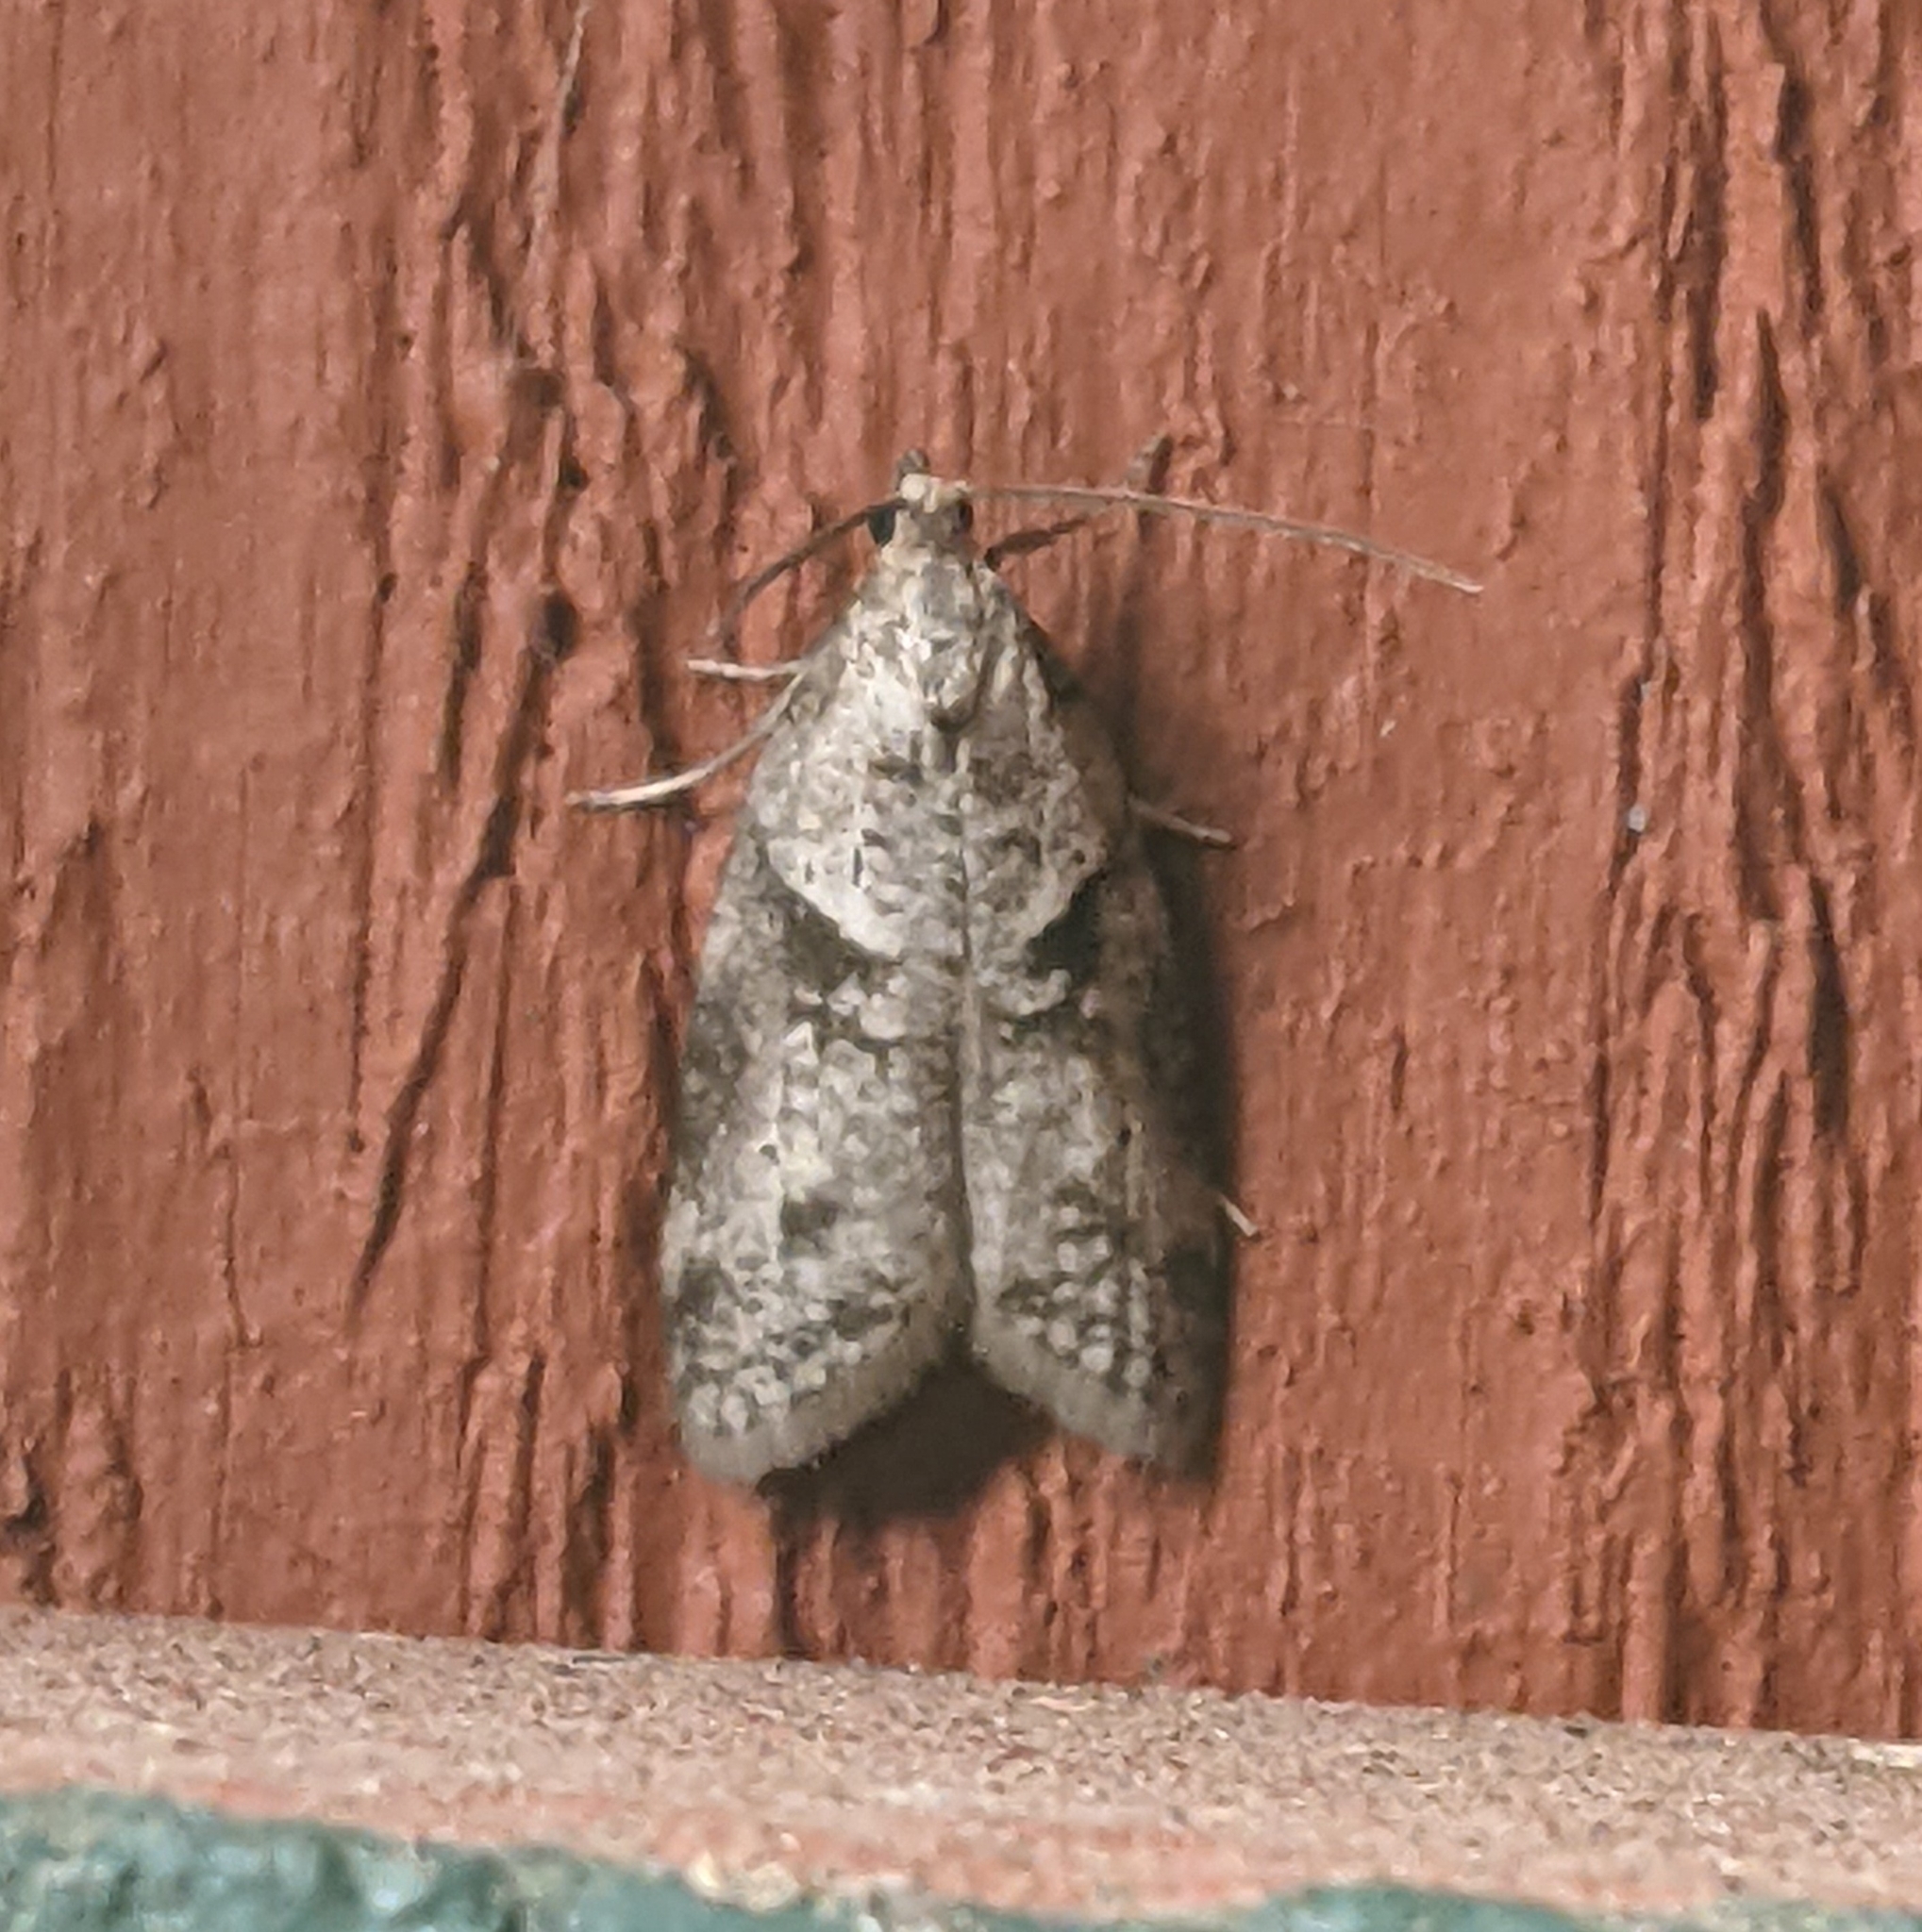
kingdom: Animalia
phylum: Arthropoda
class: Insecta
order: Lepidoptera
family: Copromorphidae
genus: Lotisma
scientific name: Lotisma trigonana
